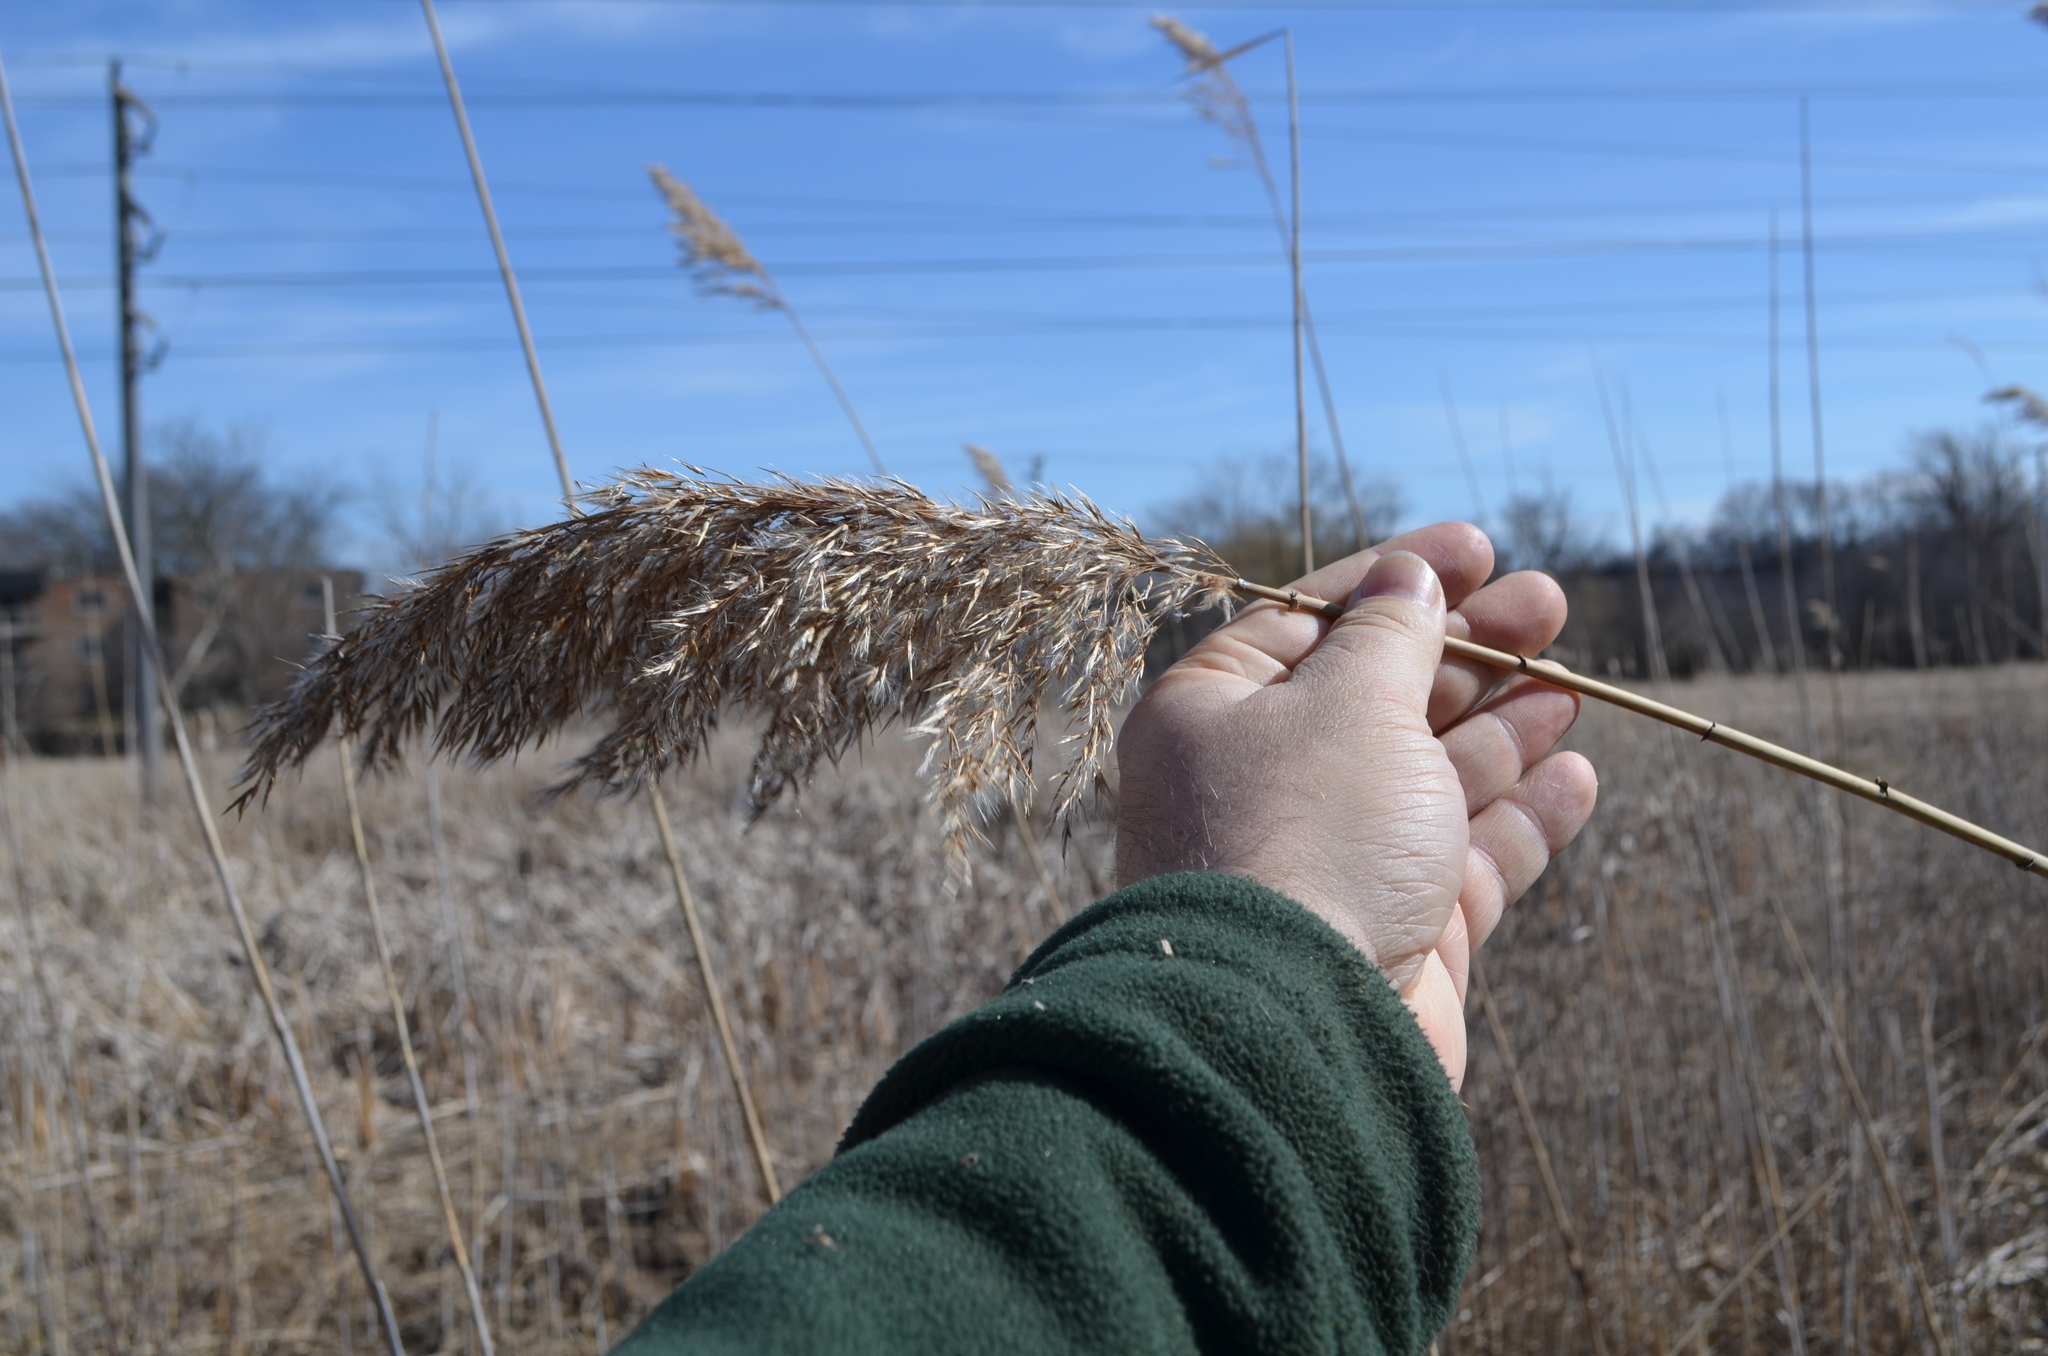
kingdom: Plantae
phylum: Tracheophyta
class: Liliopsida
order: Poales
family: Poaceae
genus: Phragmites
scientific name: Phragmites australis
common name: Common reed
